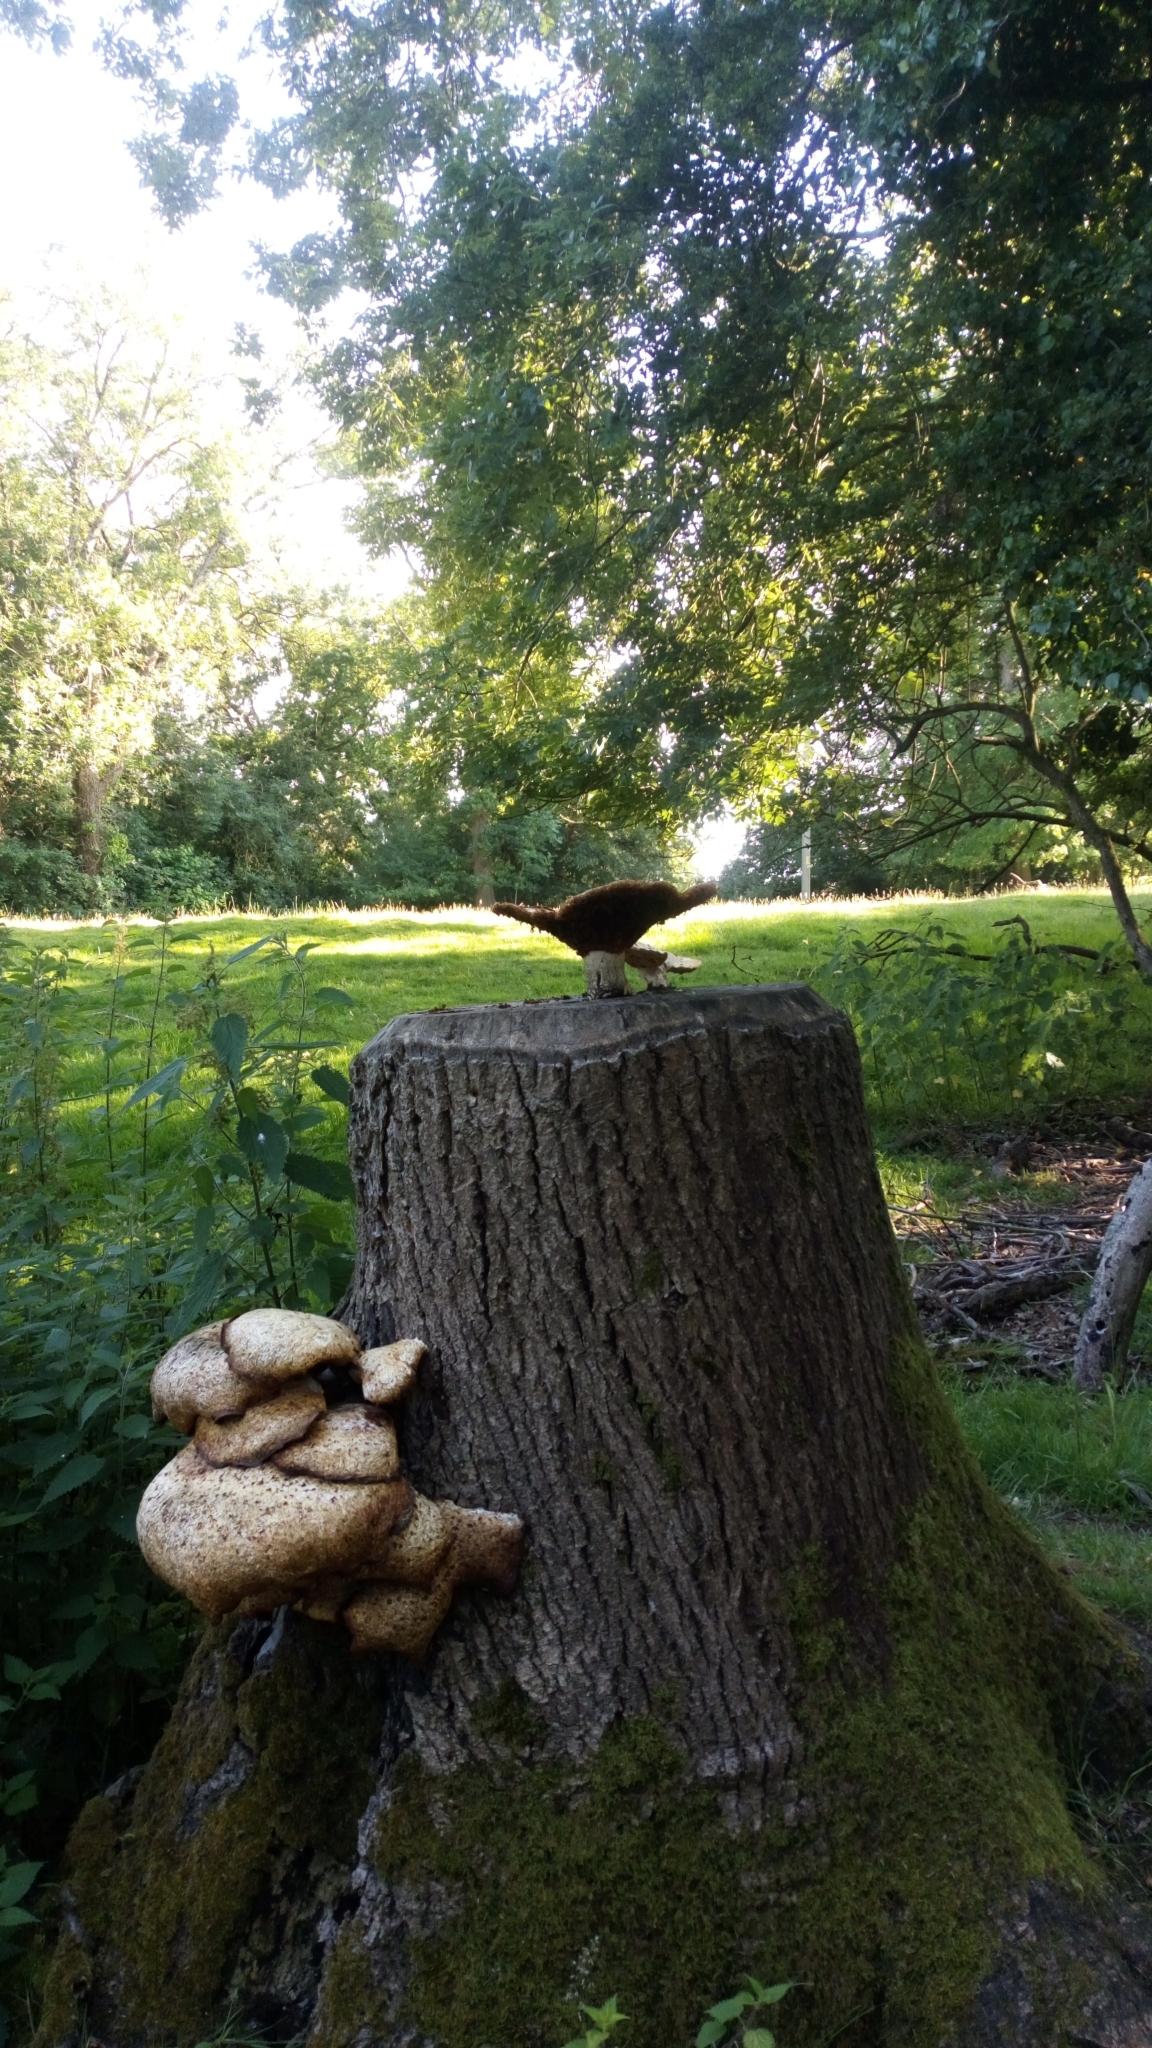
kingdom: Fungi
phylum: Basidiomycota
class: Agaricomycetes
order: Polyporales
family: Polyporaceae
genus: Cerioporus
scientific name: Cerioporus squamosus
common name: Dryad's saddle
